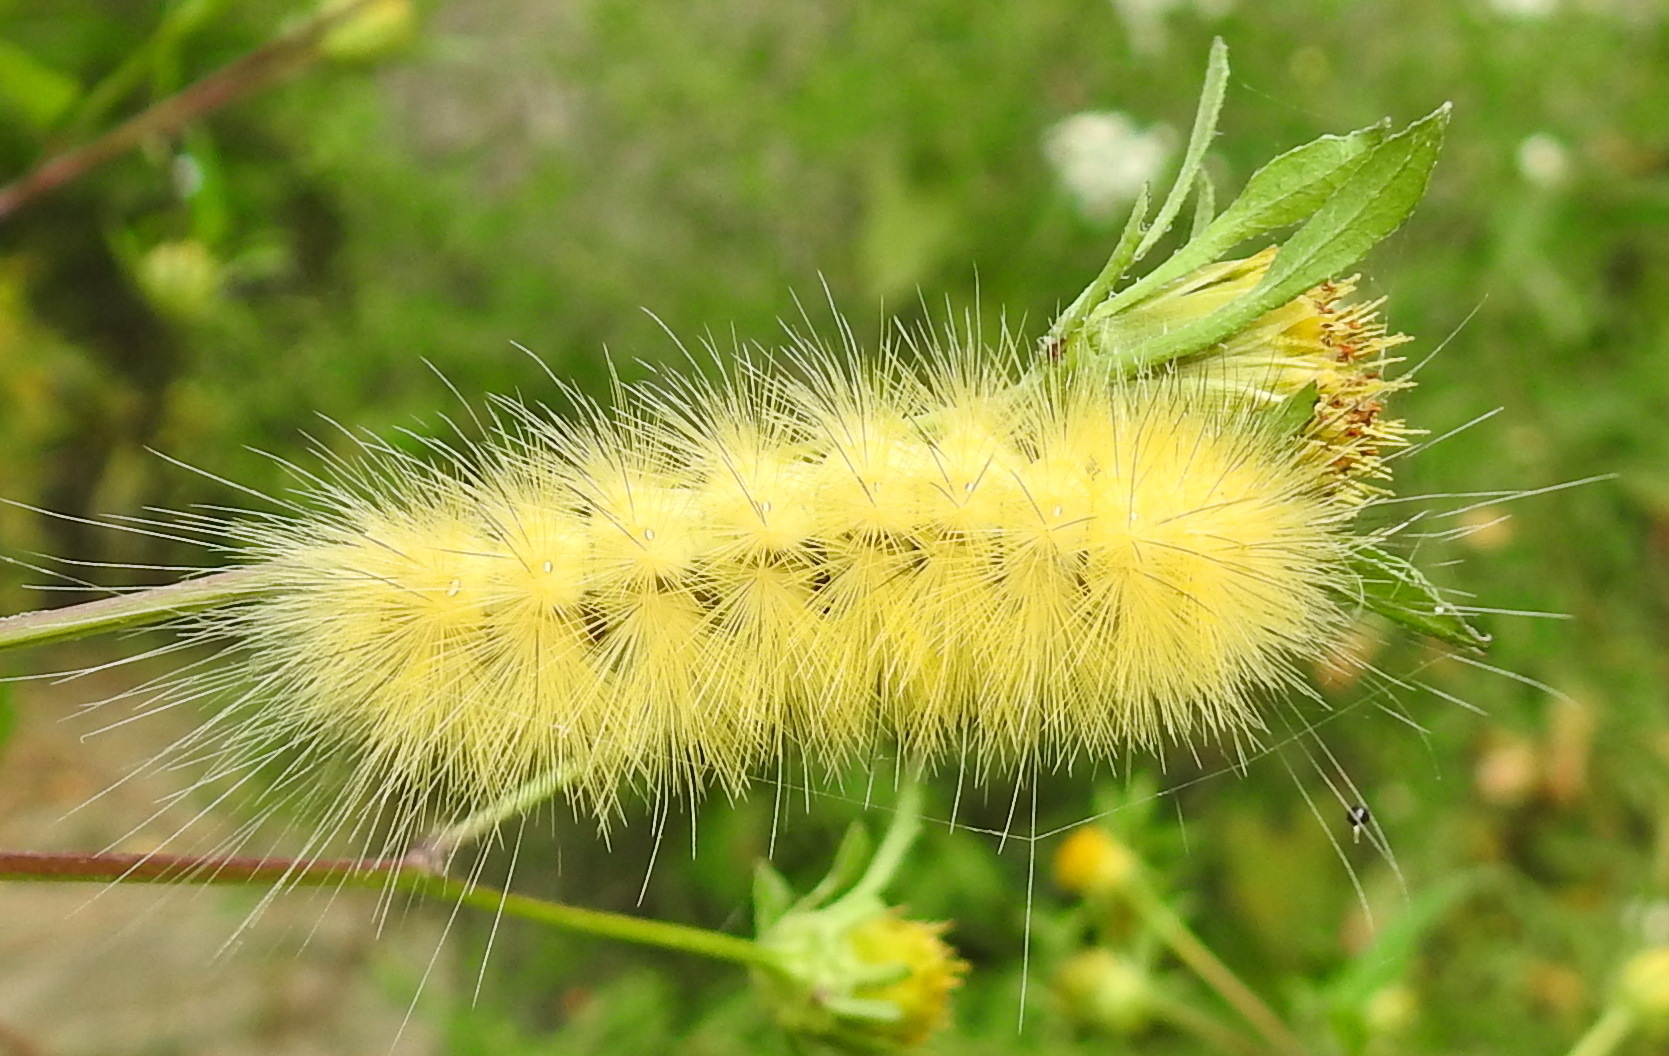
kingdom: Animalia
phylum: Arthropoda
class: Insecta
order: Lepidoptera
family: Erebidae
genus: Spilosoma
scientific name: Spilosoma virginica
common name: Virginia tiger moth
